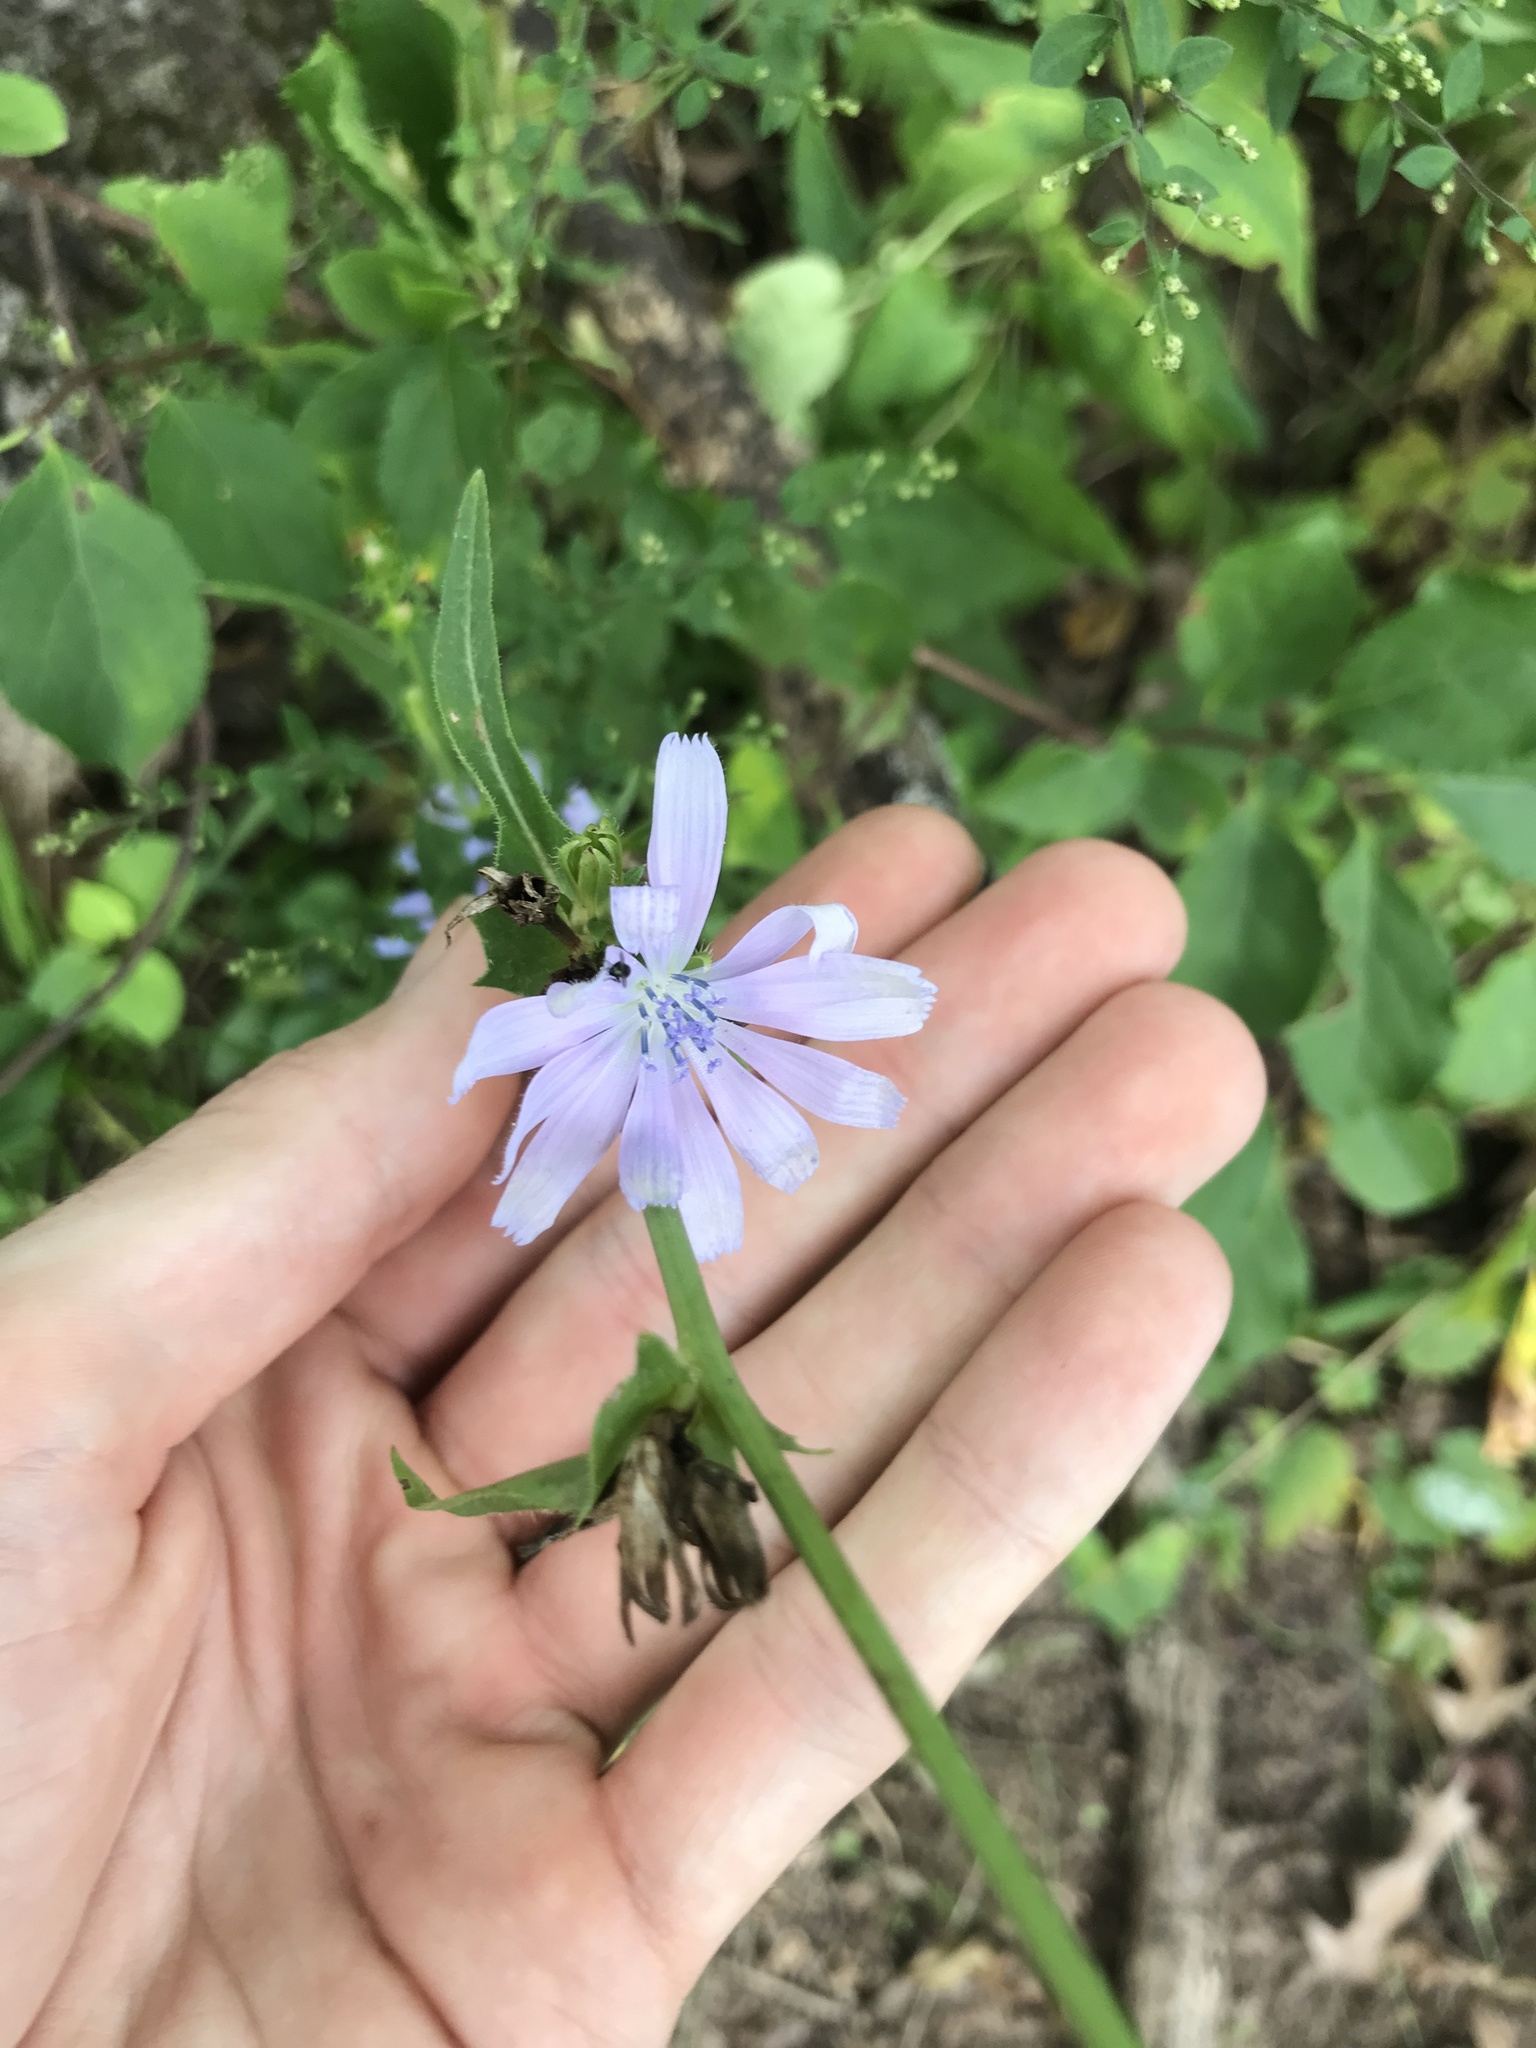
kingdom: Plantae
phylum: Tracheophyta
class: Magnoliopsida
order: Asterales
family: Asteraceae
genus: Cichorium
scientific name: Cichorium intybus
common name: Chicory
